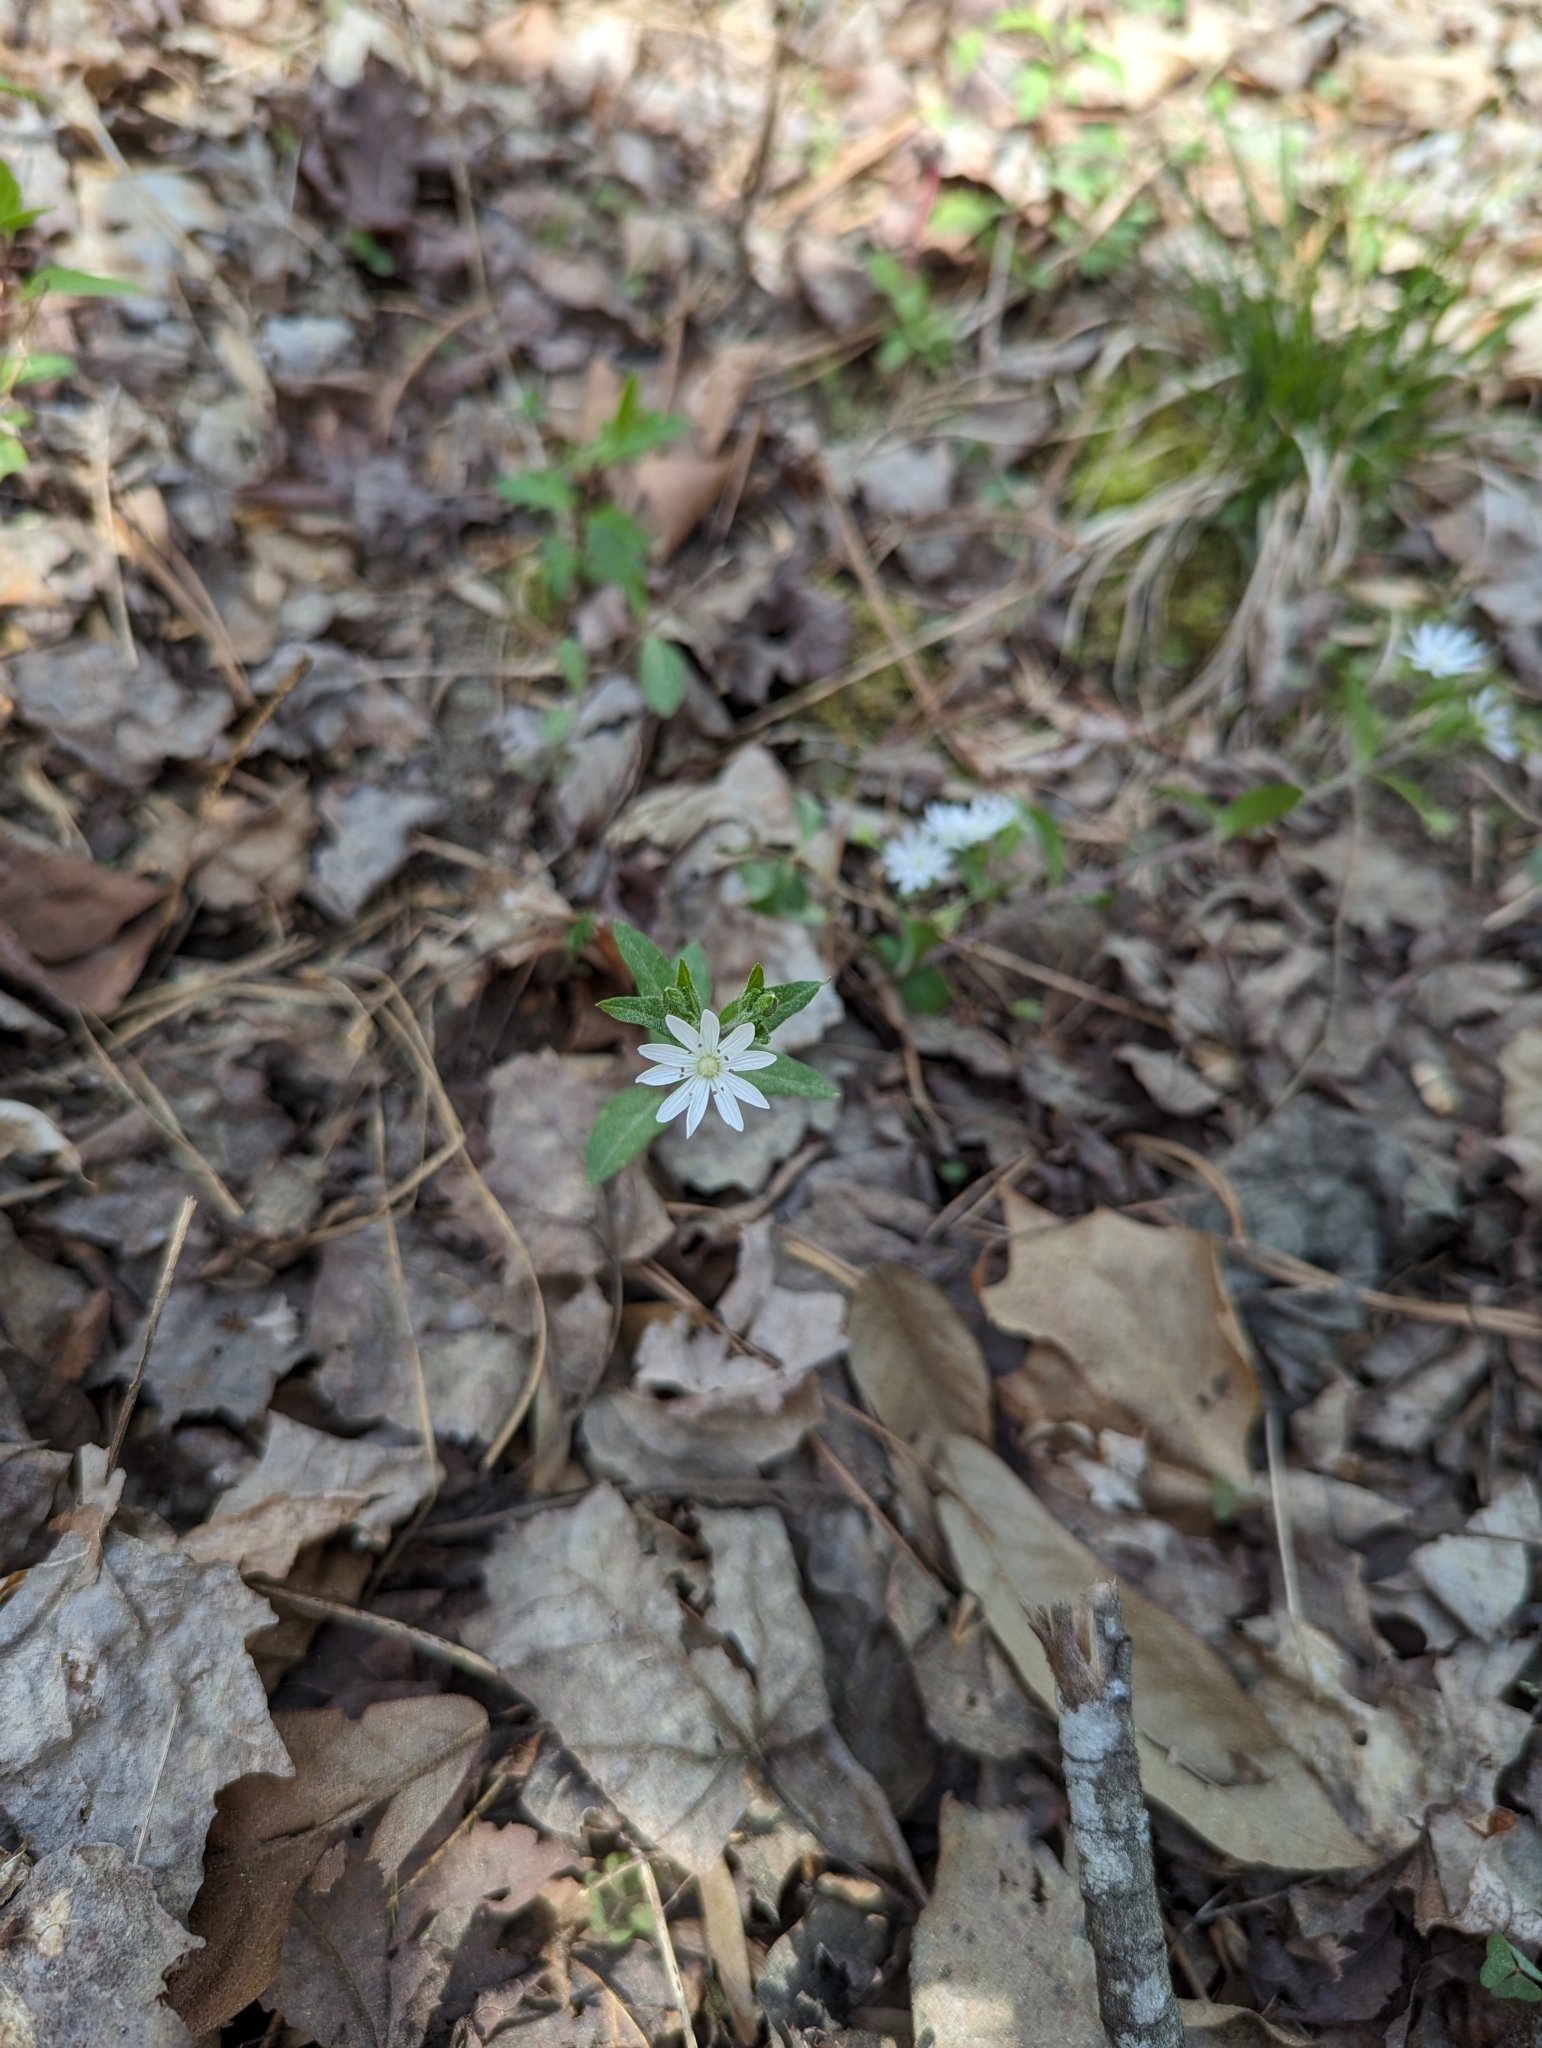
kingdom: Plantae
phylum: Tracheophyta
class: Magnoliopsida
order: Caryophyllales
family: Caryophyllaceae
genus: Stellaria
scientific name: Stellaria pubera
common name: Star chickweed
